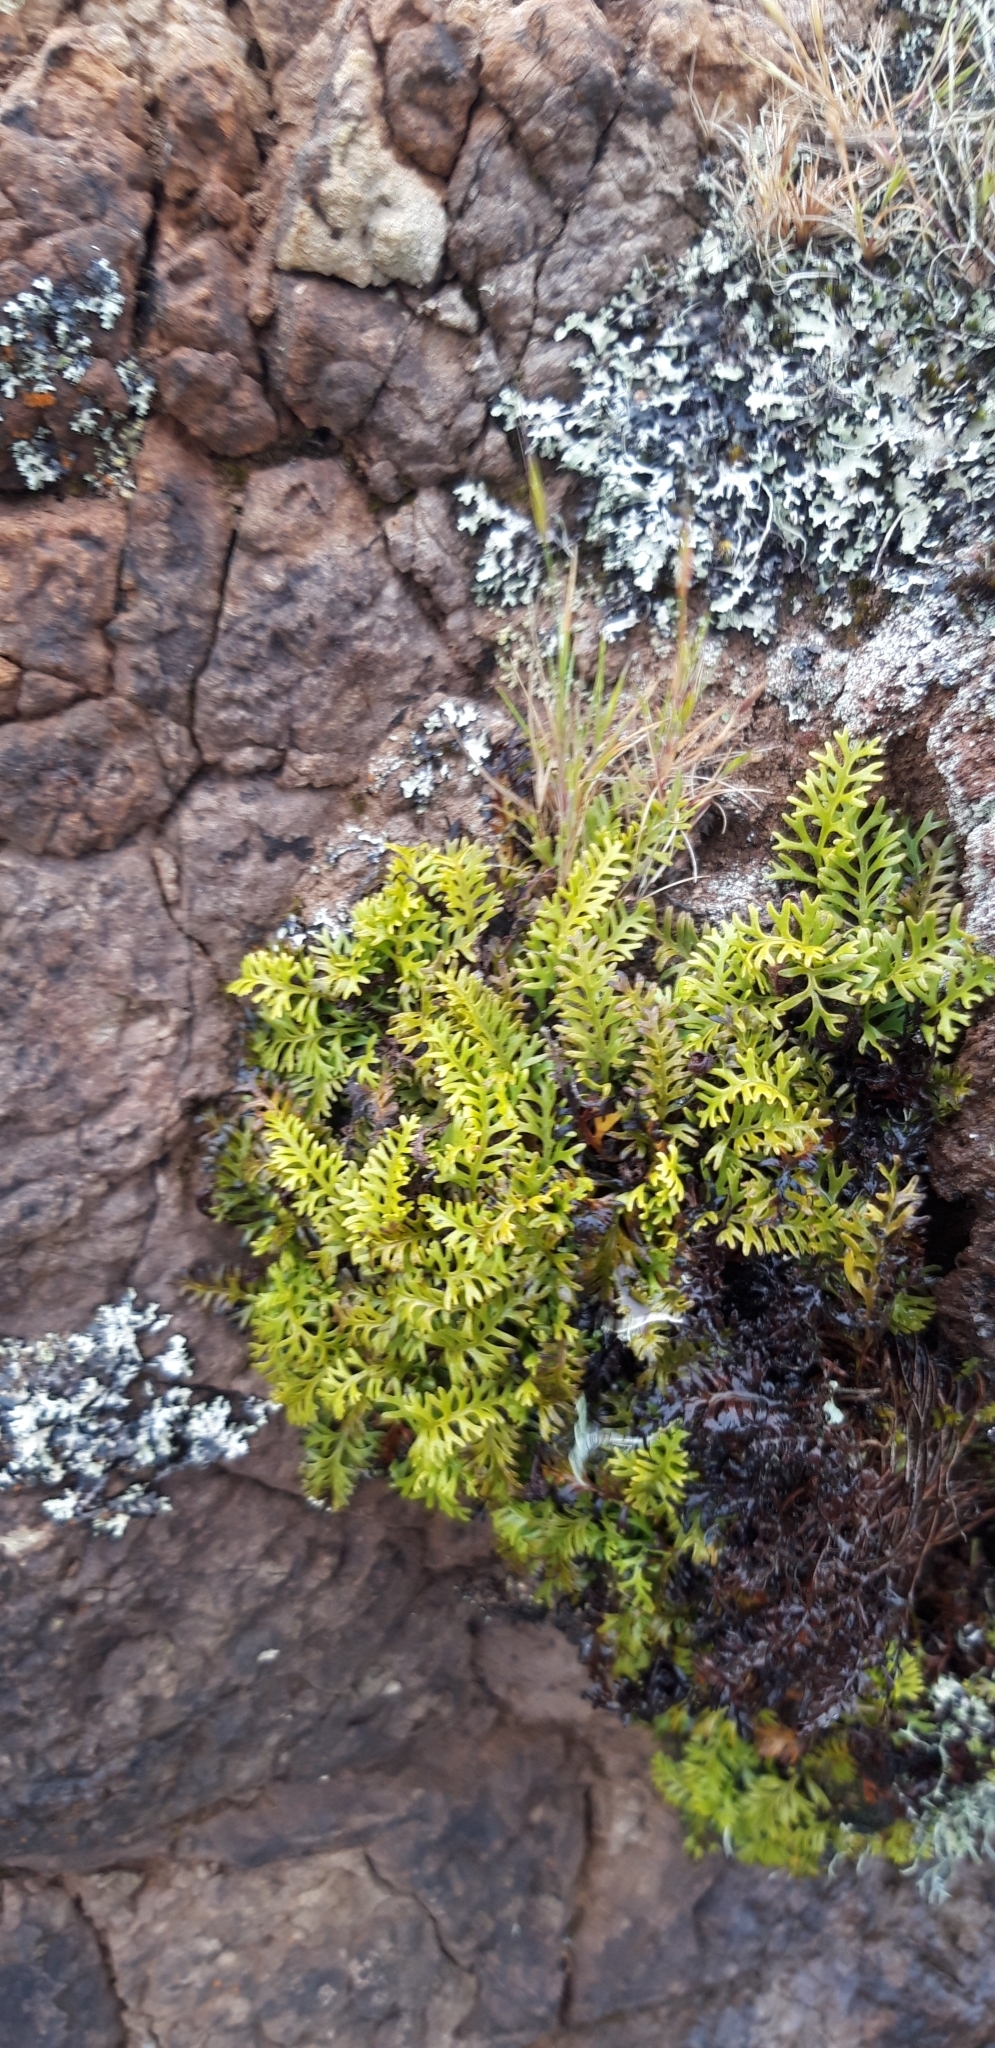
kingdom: Plantae
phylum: Tracheophyta
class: Polypodiopsida
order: Polypodiales
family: Dryopteridaceae
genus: Elaphoglossum
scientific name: Elaphoglossum furcatum
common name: Mossy fern
